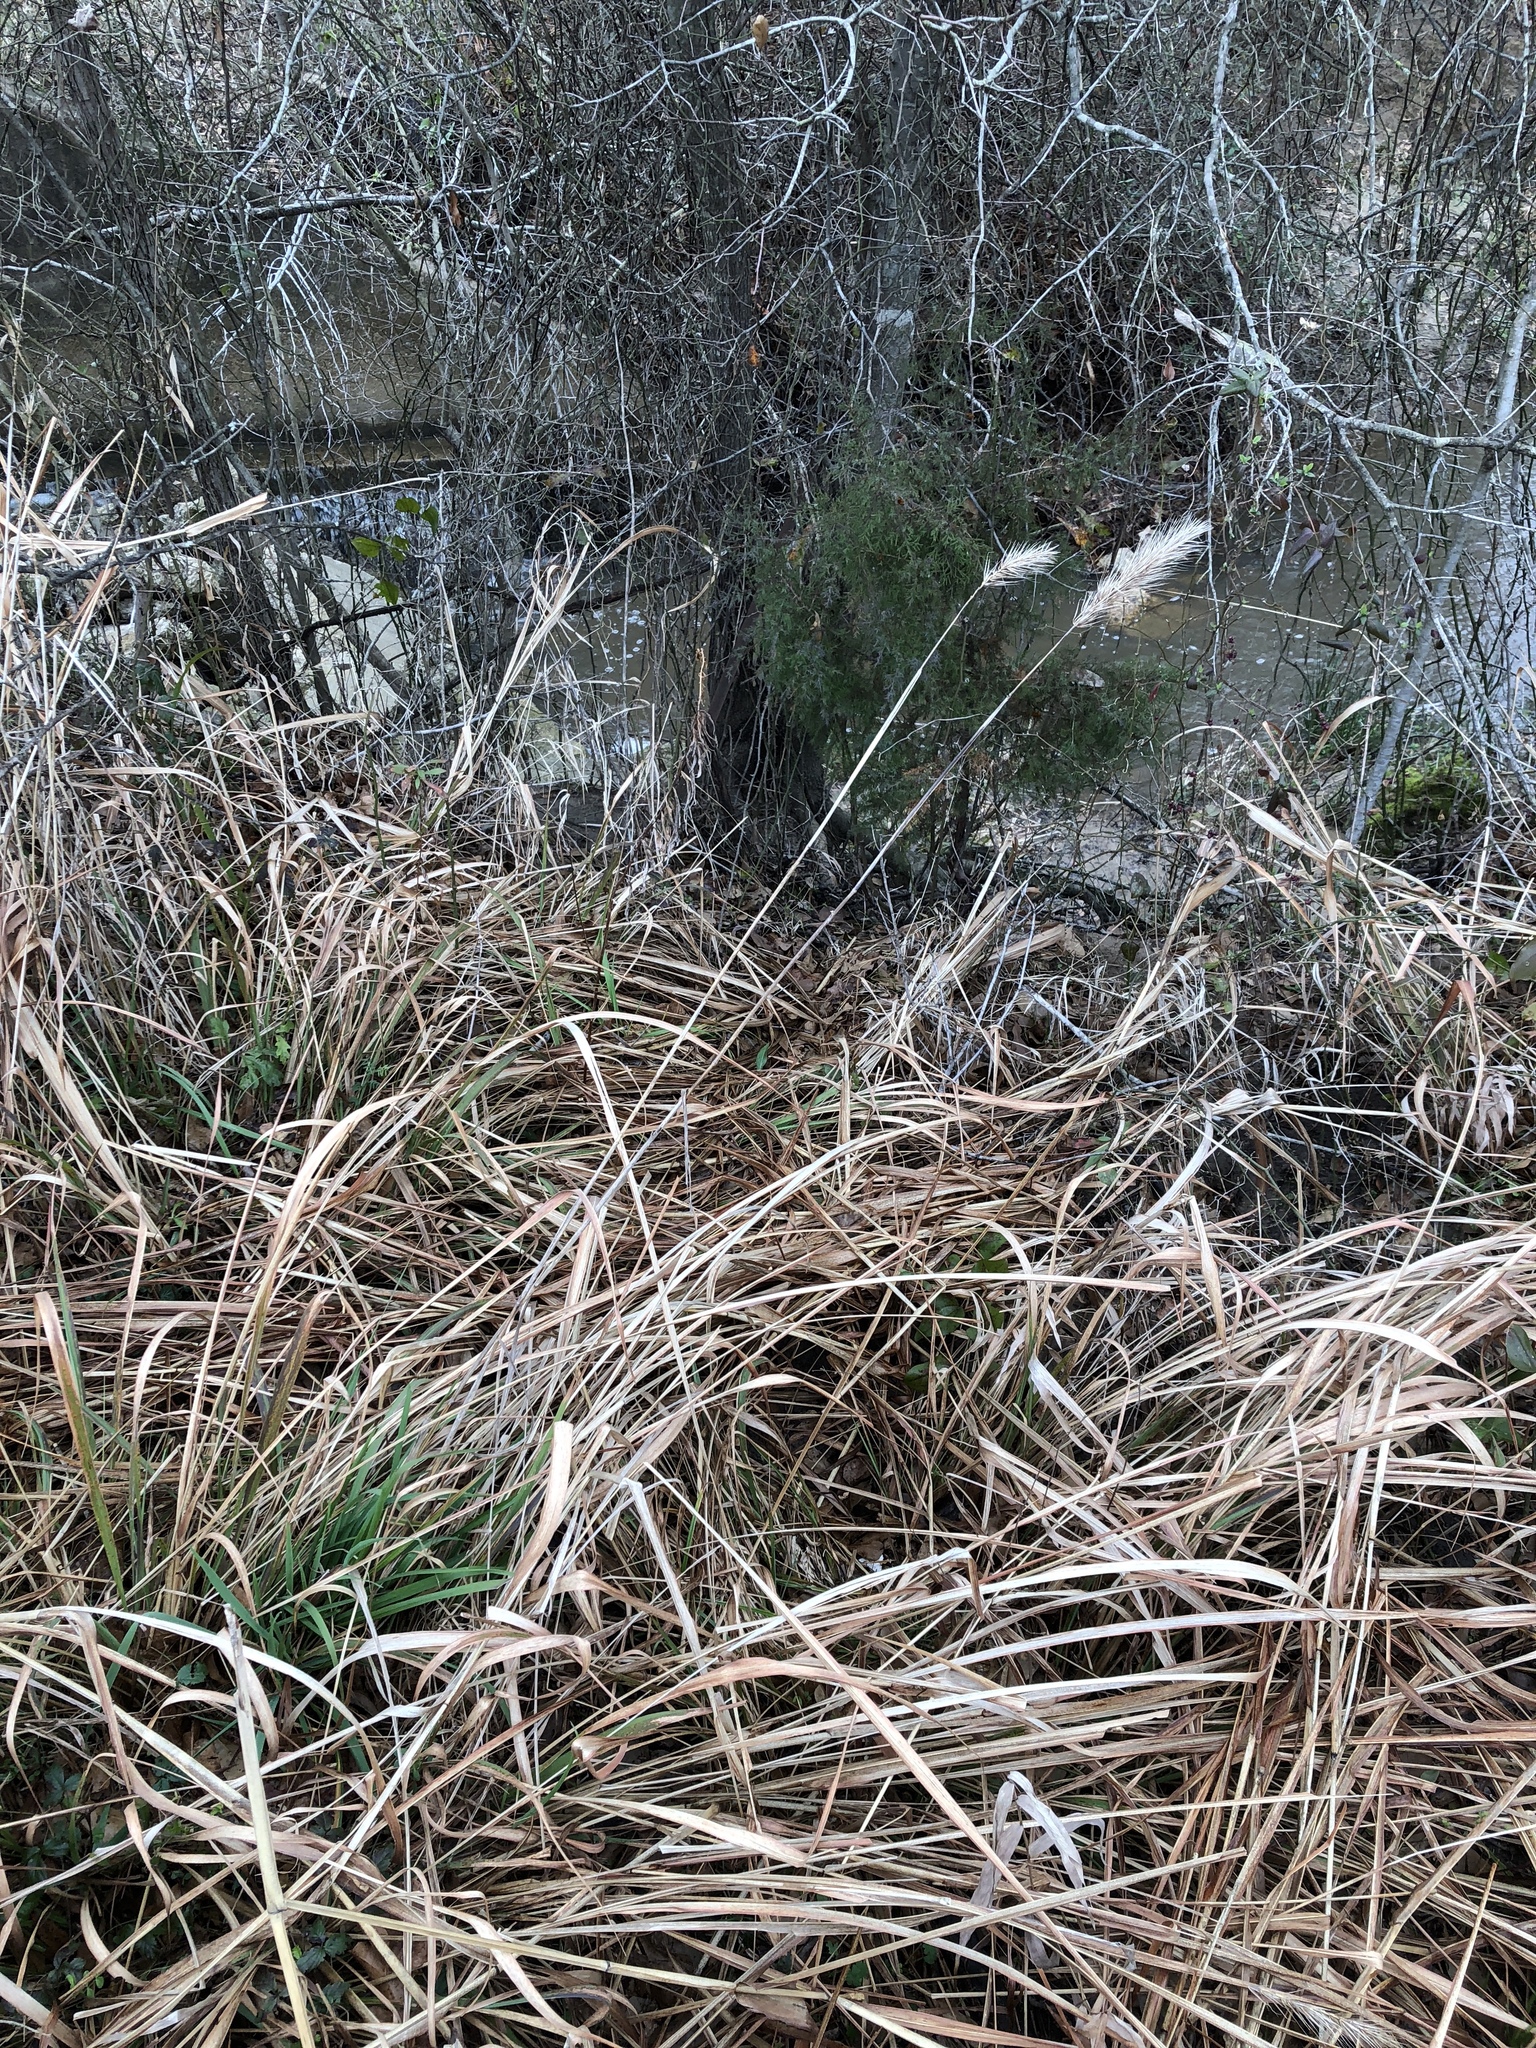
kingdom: Plantae
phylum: Tracheophyta
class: Liliopsida
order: Poales
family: Poaceae
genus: Elymus
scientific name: Elymus canadensis
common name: Canada wild rye
